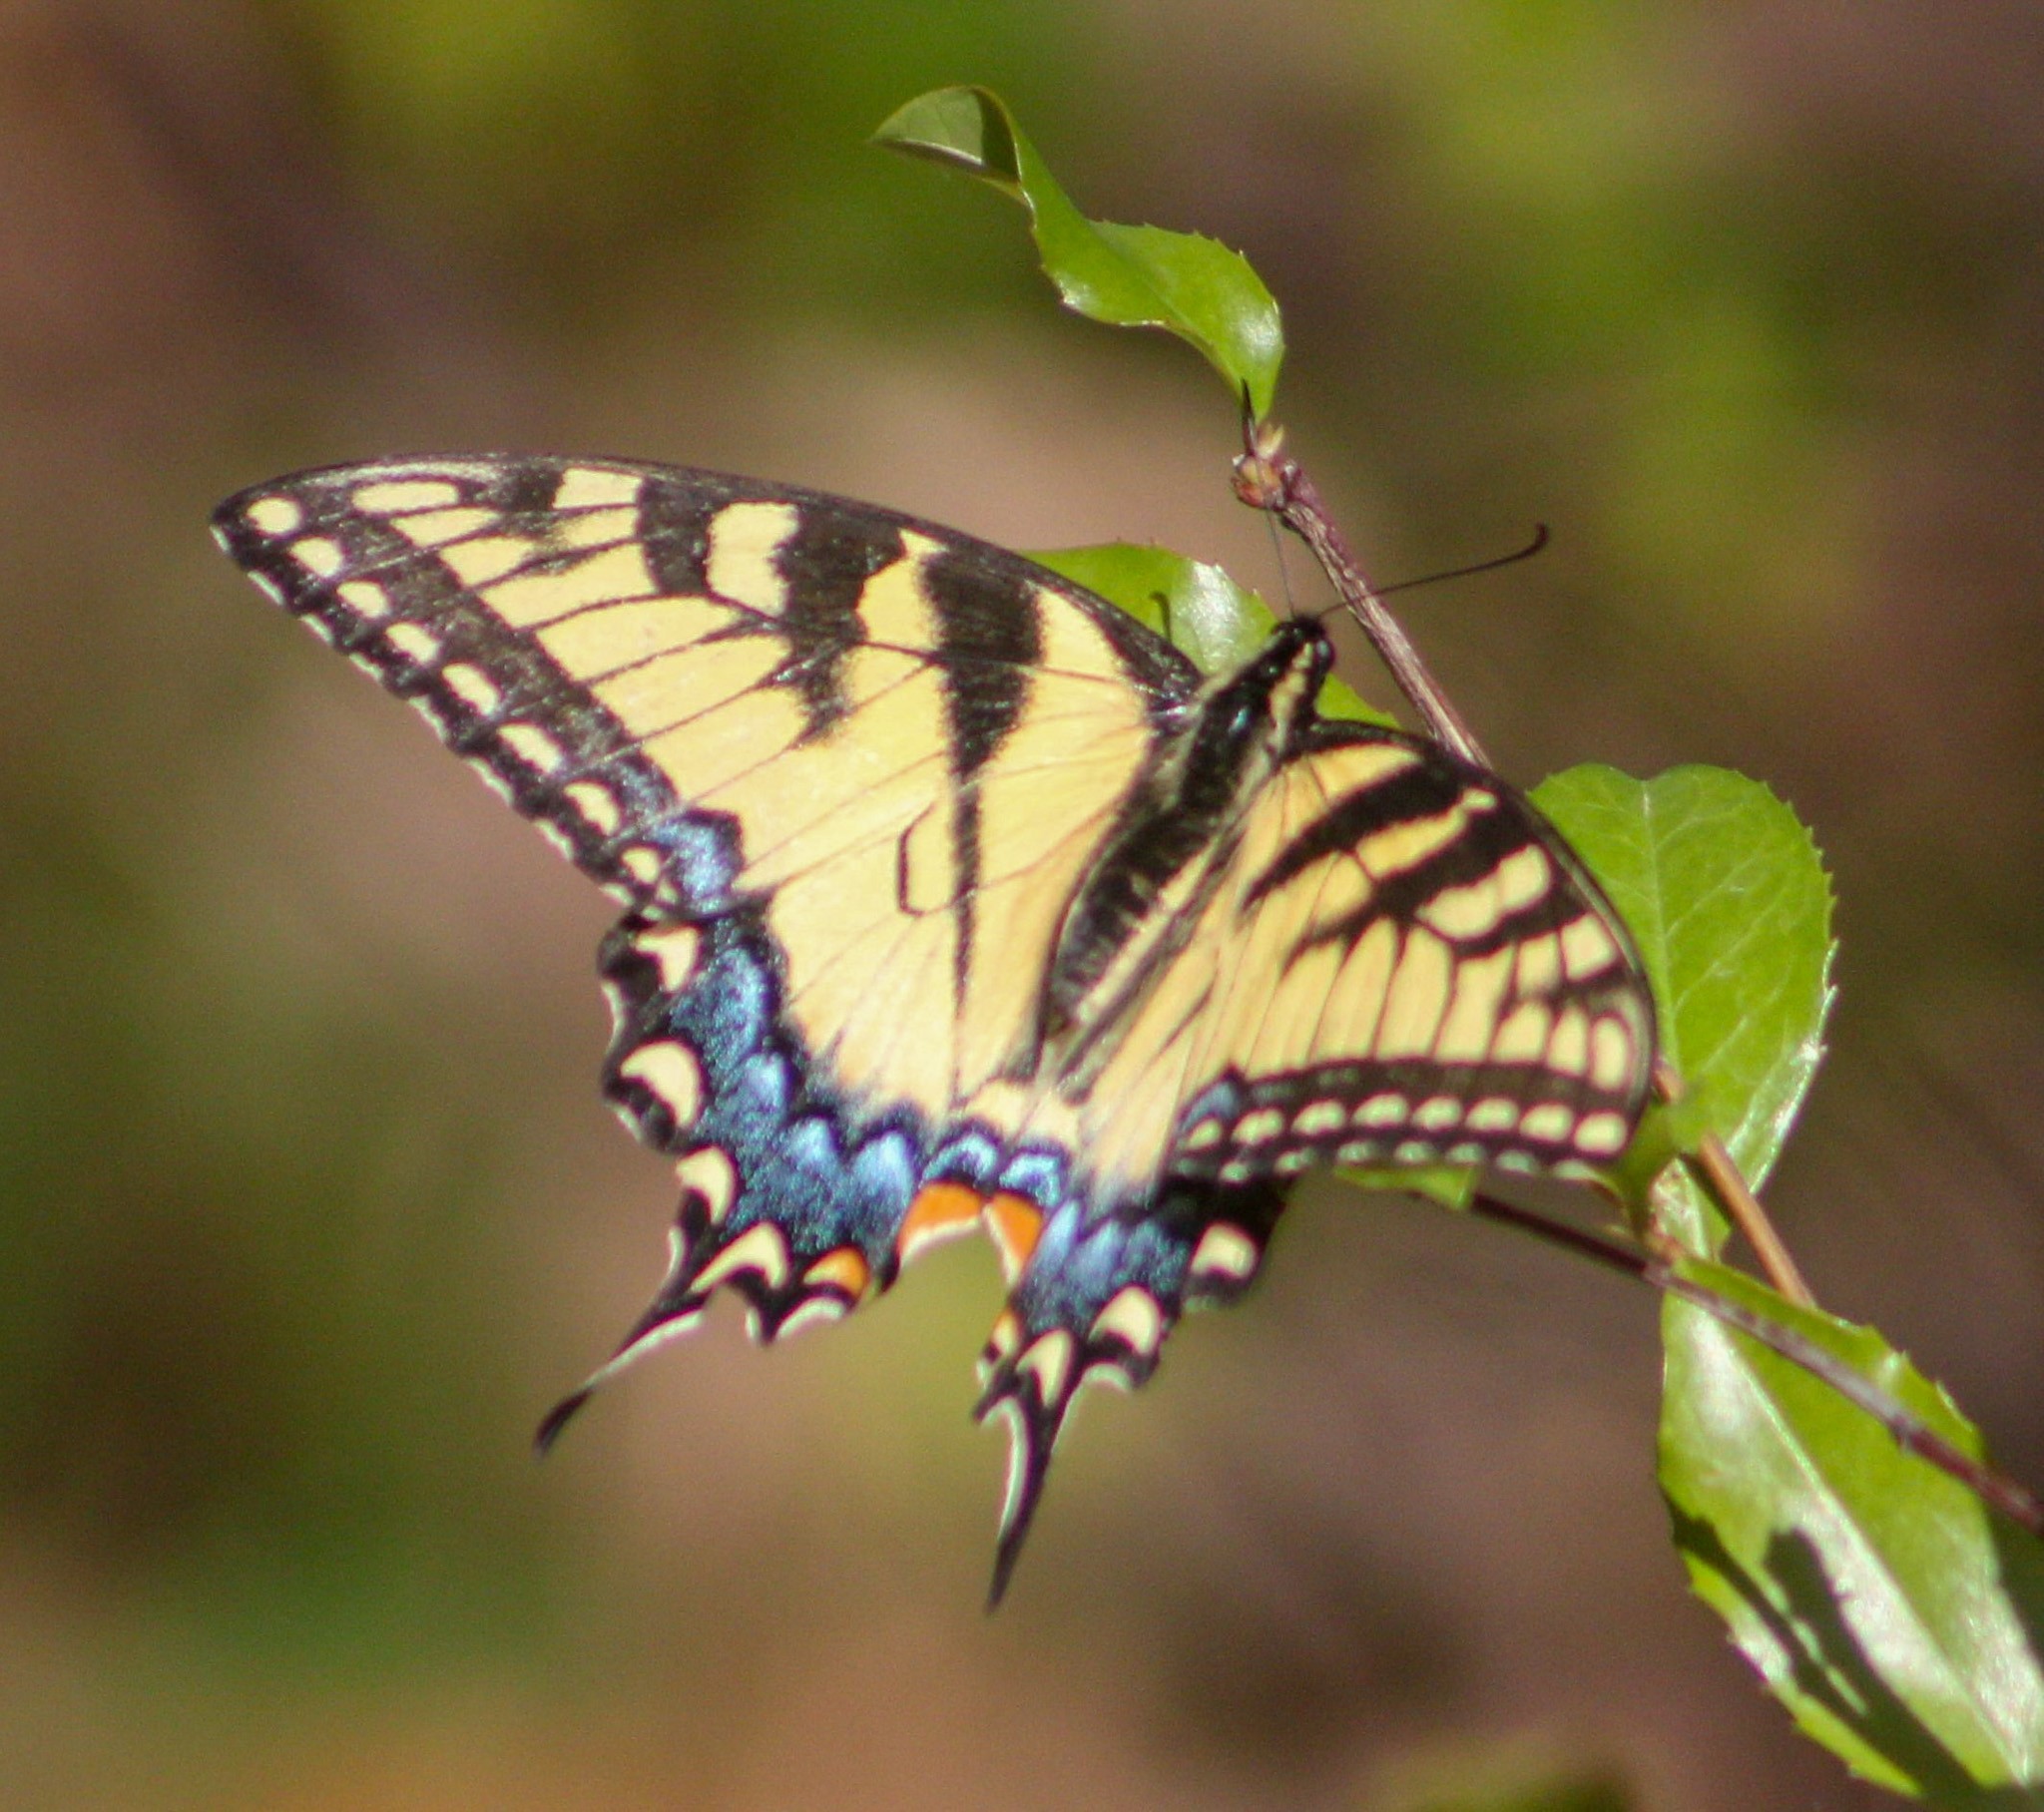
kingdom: Animalia
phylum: Arthropoda
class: Insecta
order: Lepidoptera
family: Papilionidae
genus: Papilio
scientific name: Papilio glaucus
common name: Tiger swallowtail
